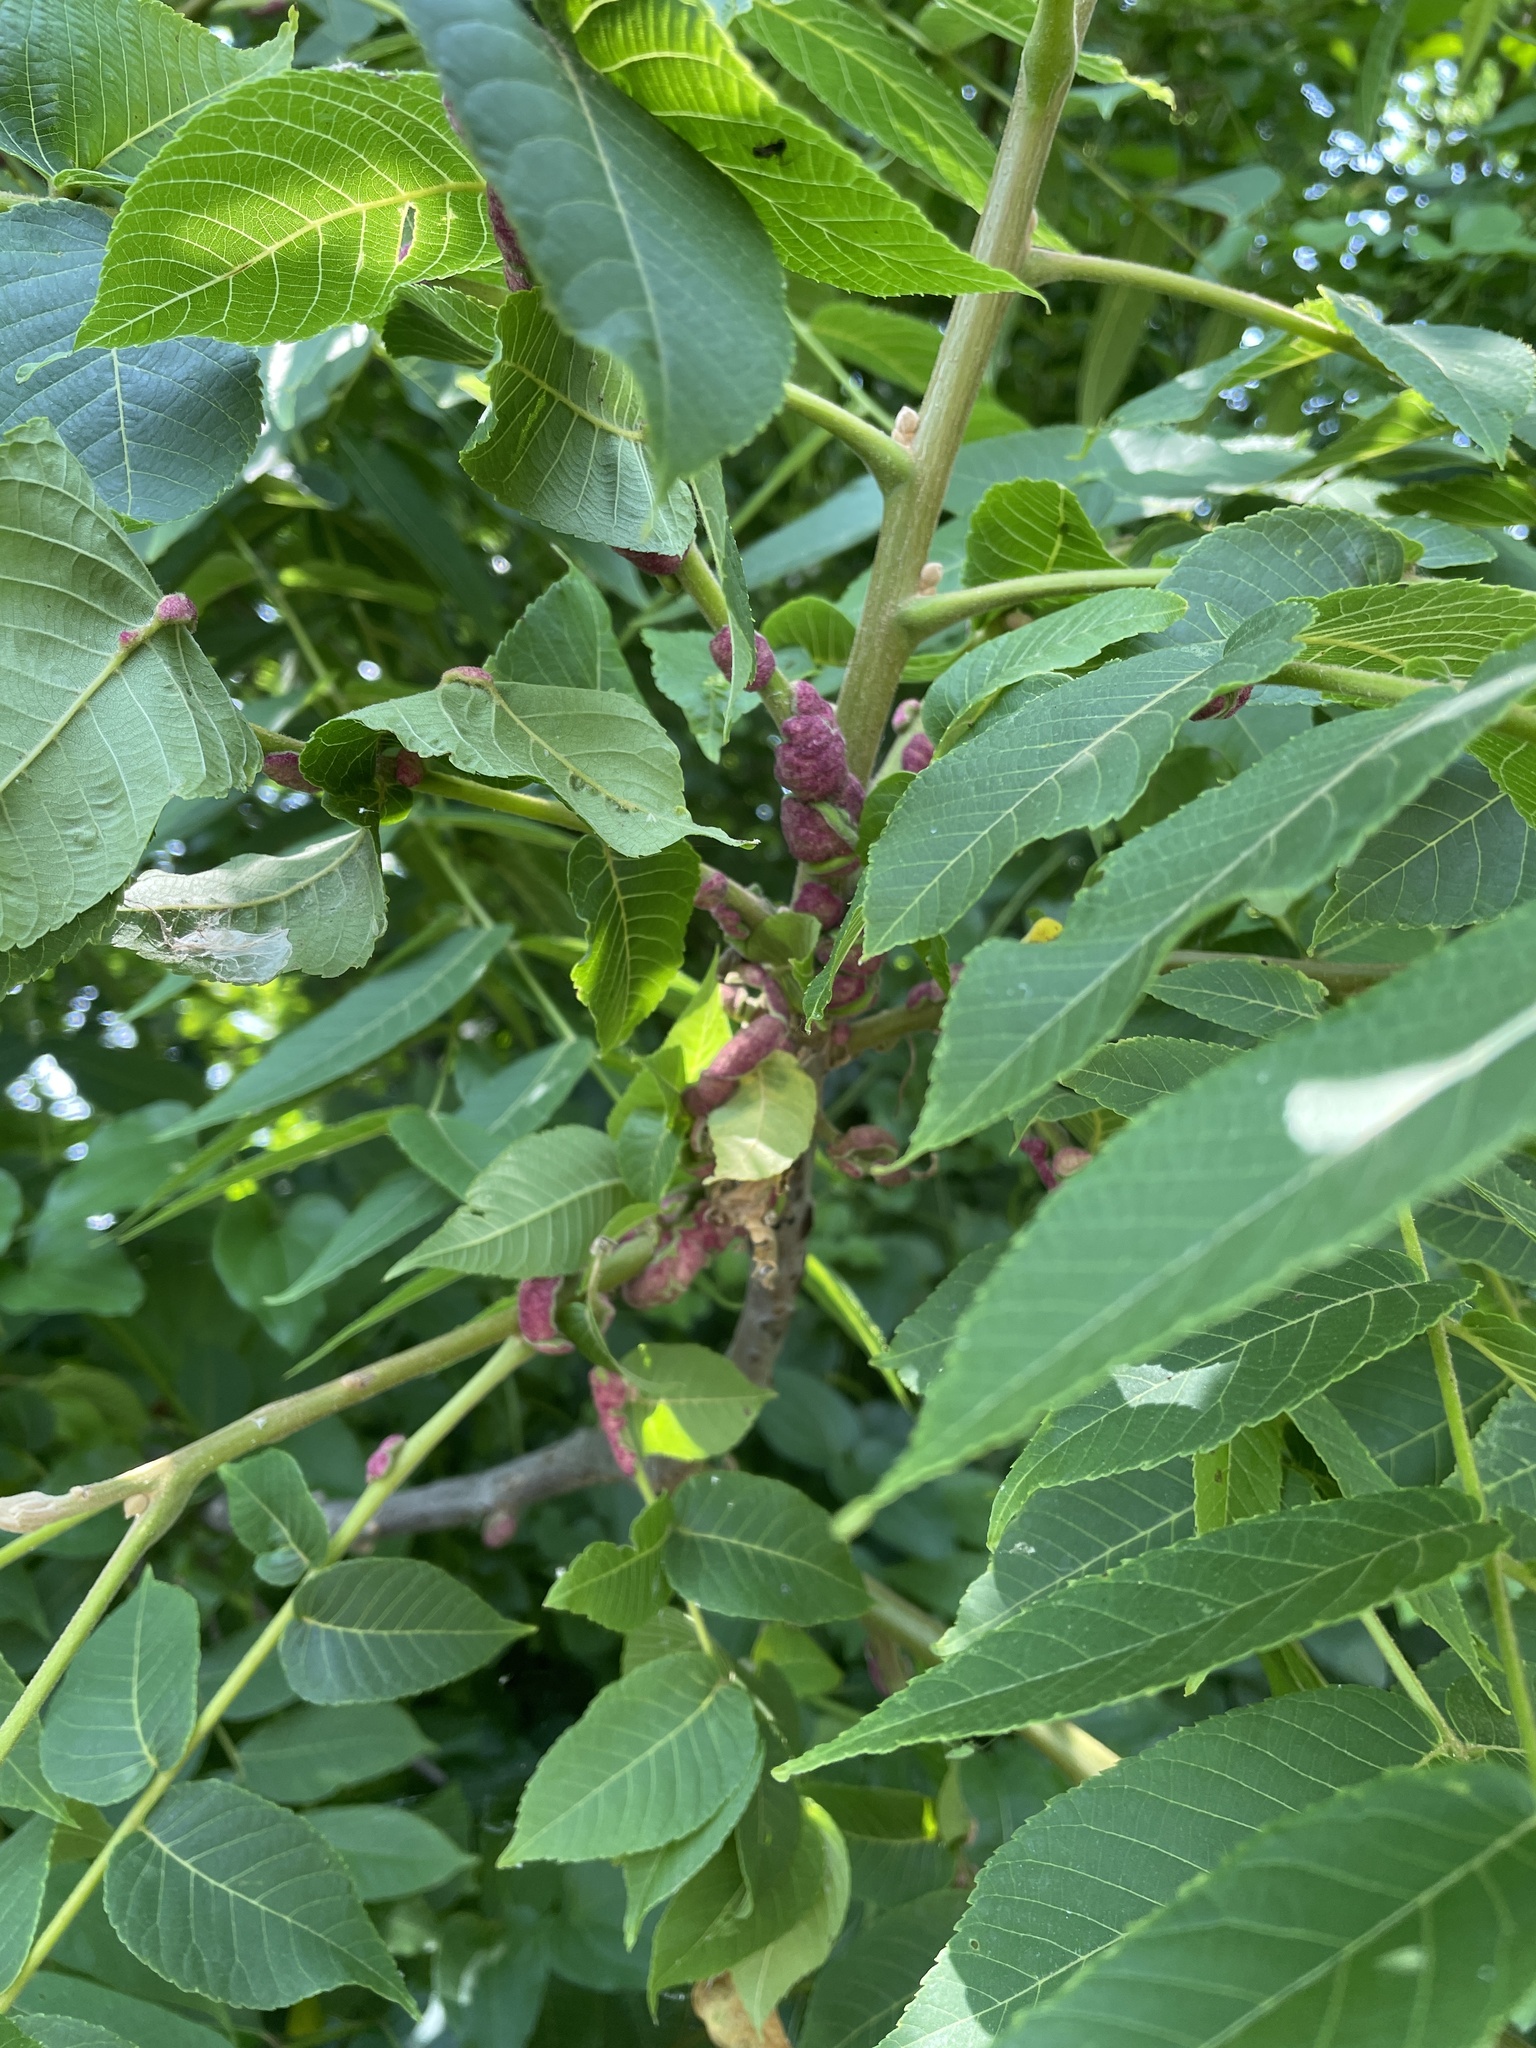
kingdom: Animalia
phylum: Arthropoda
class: Arachnida
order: Trombidiformes
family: Eriophyidae
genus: Aceria
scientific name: Aceria
